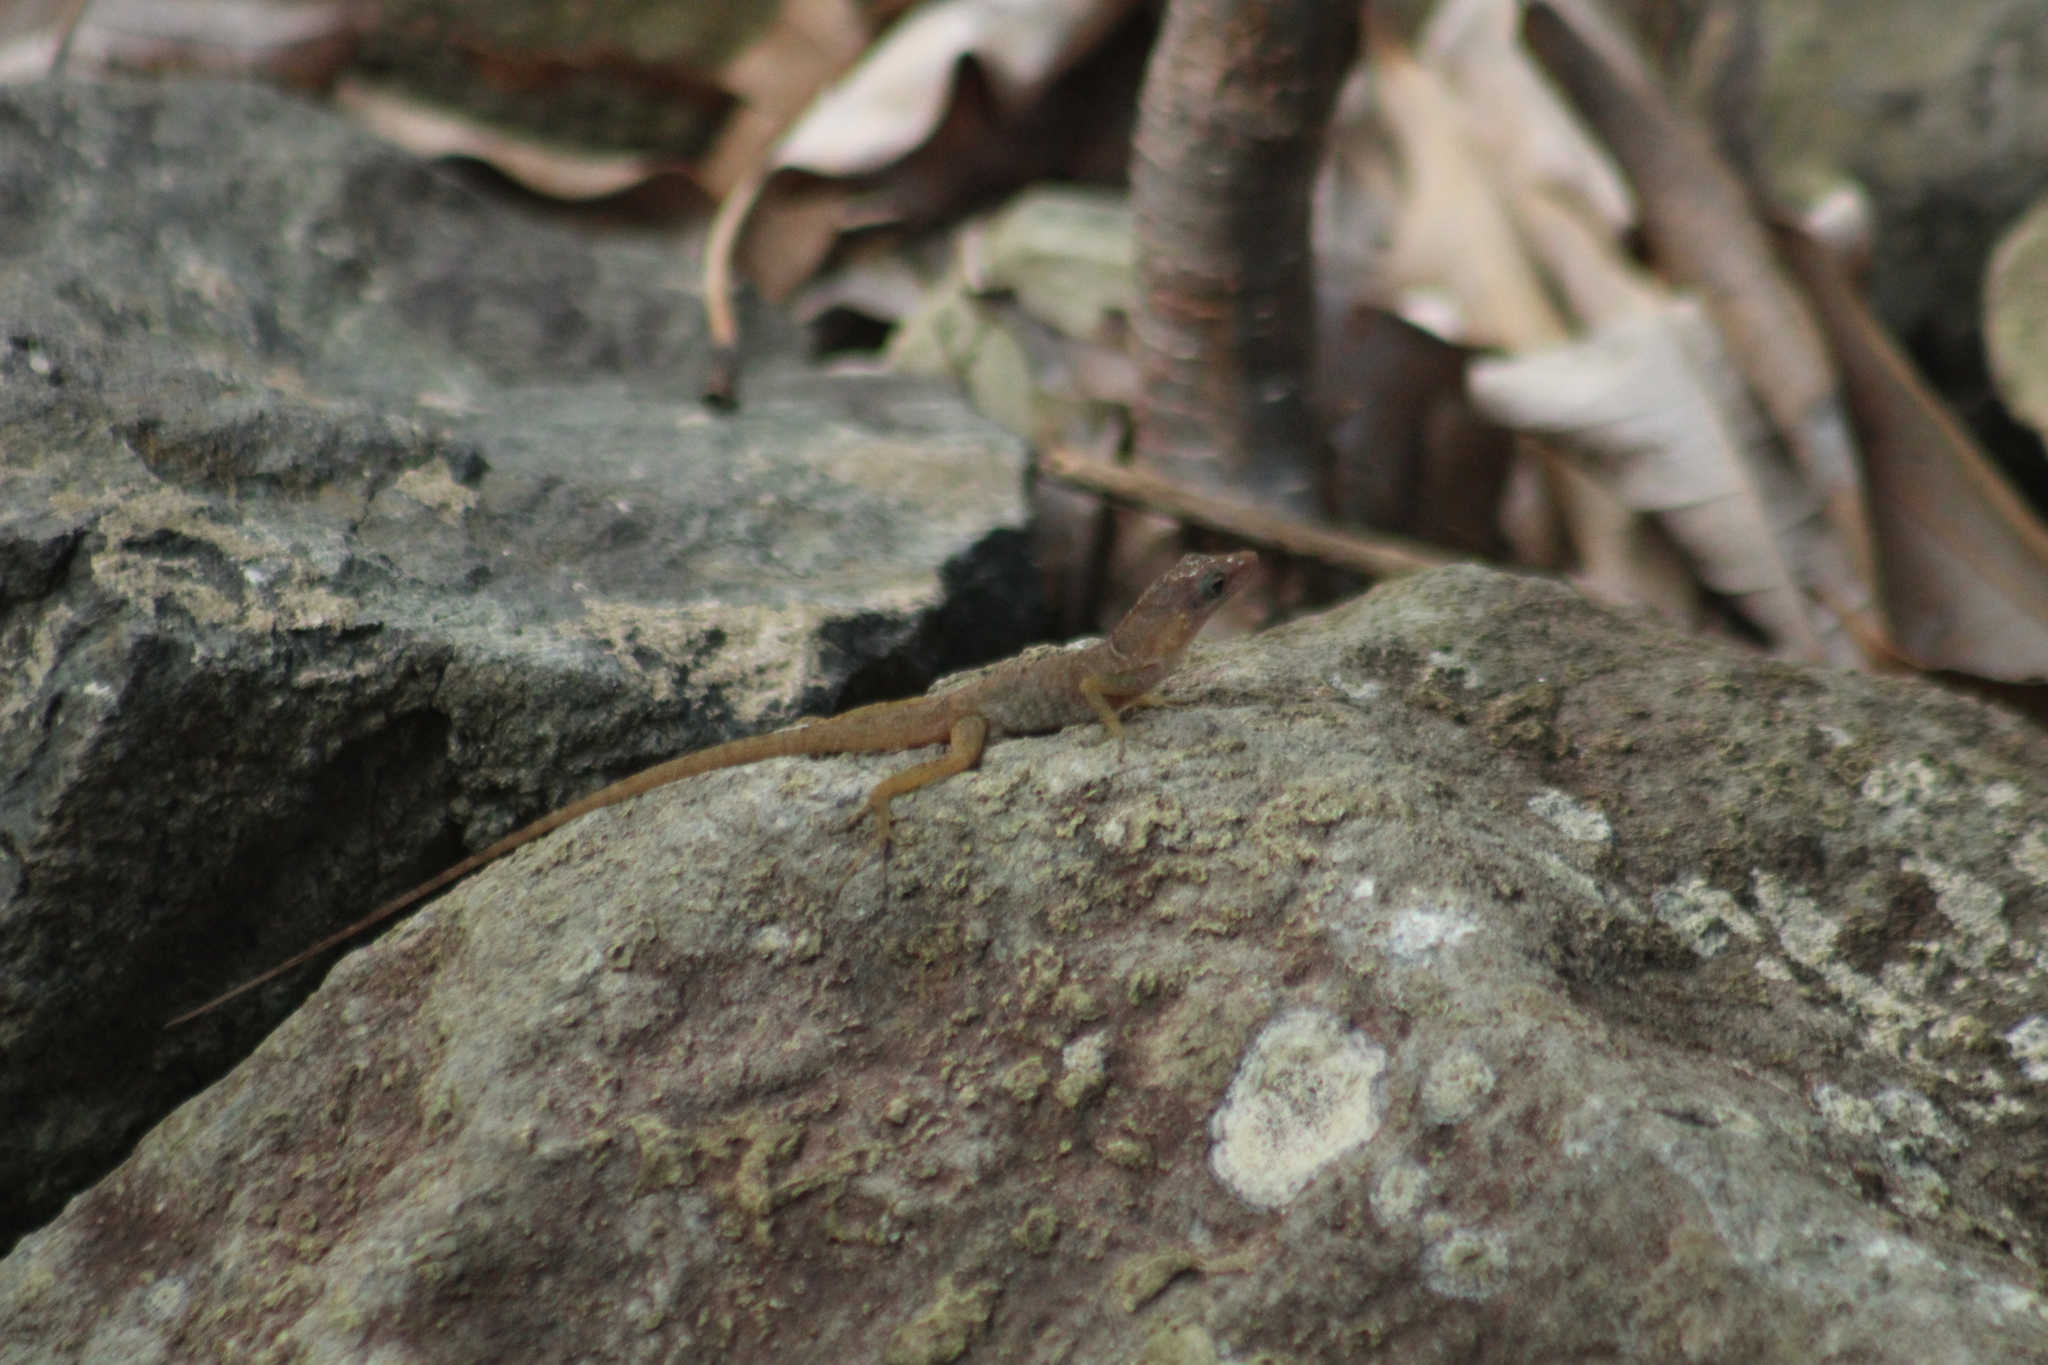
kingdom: Animalia
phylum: Chordata
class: Squamata
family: Dactyloidae
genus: Anolis
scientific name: Anolis pogus
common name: Anguilla bank bush anole
